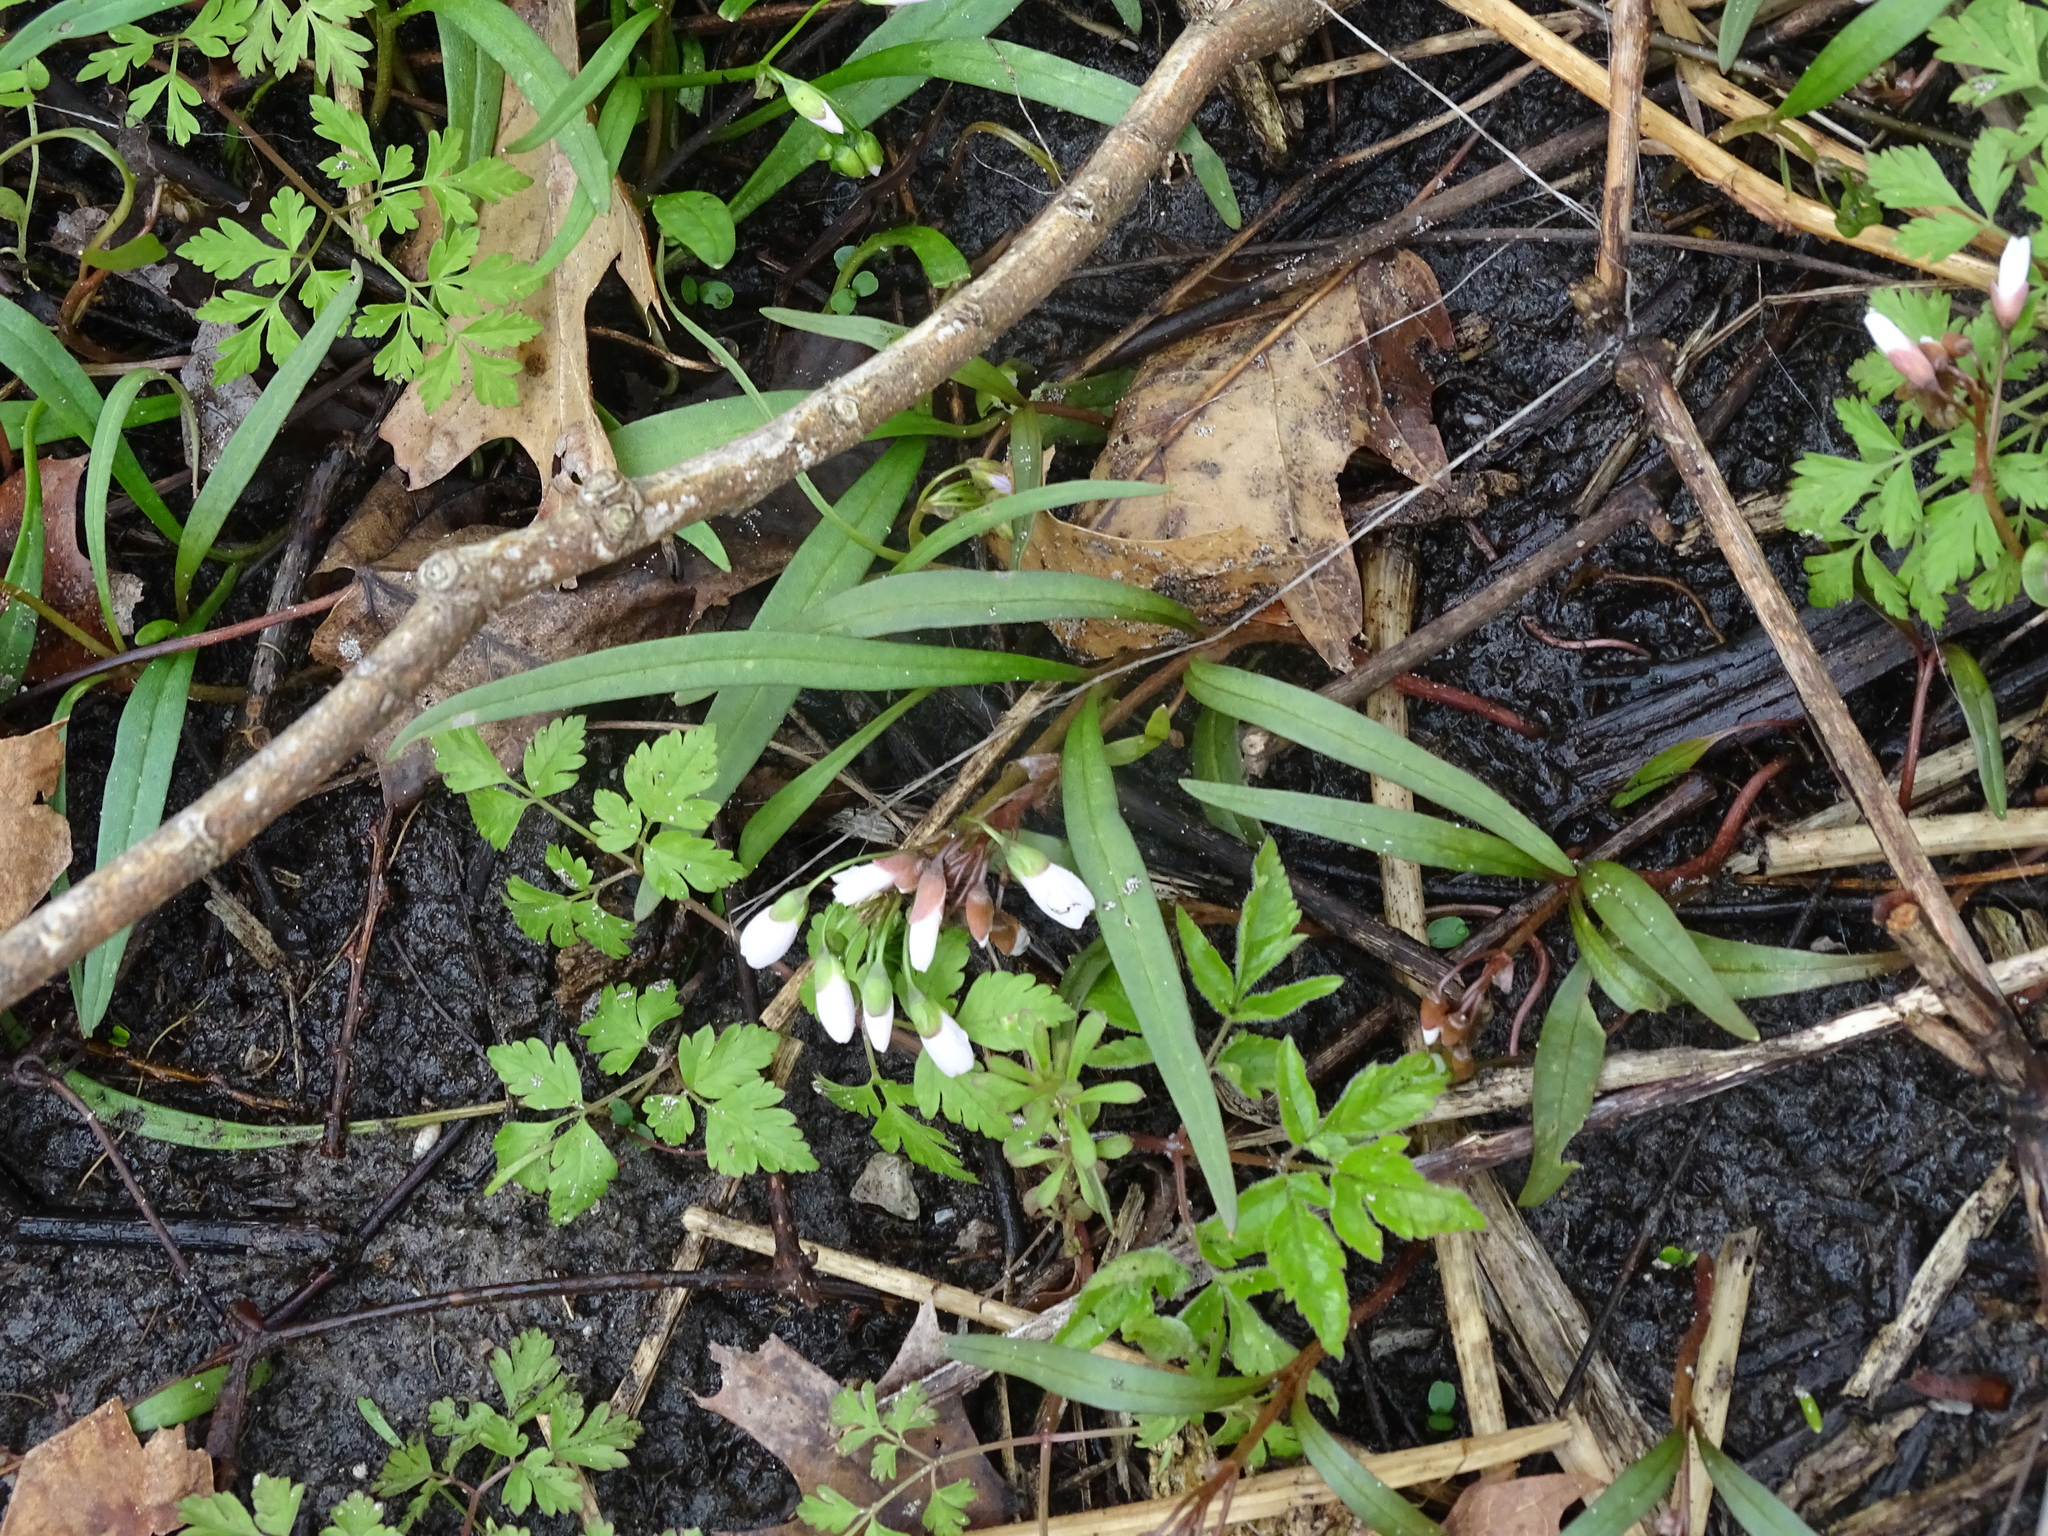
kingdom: Plantae
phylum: Tracheophyta
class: Magnoliopsida
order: Caryophyllales
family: Montiaceae
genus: Claytonia
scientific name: Claytonia virginica
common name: Virginia springbeauty
